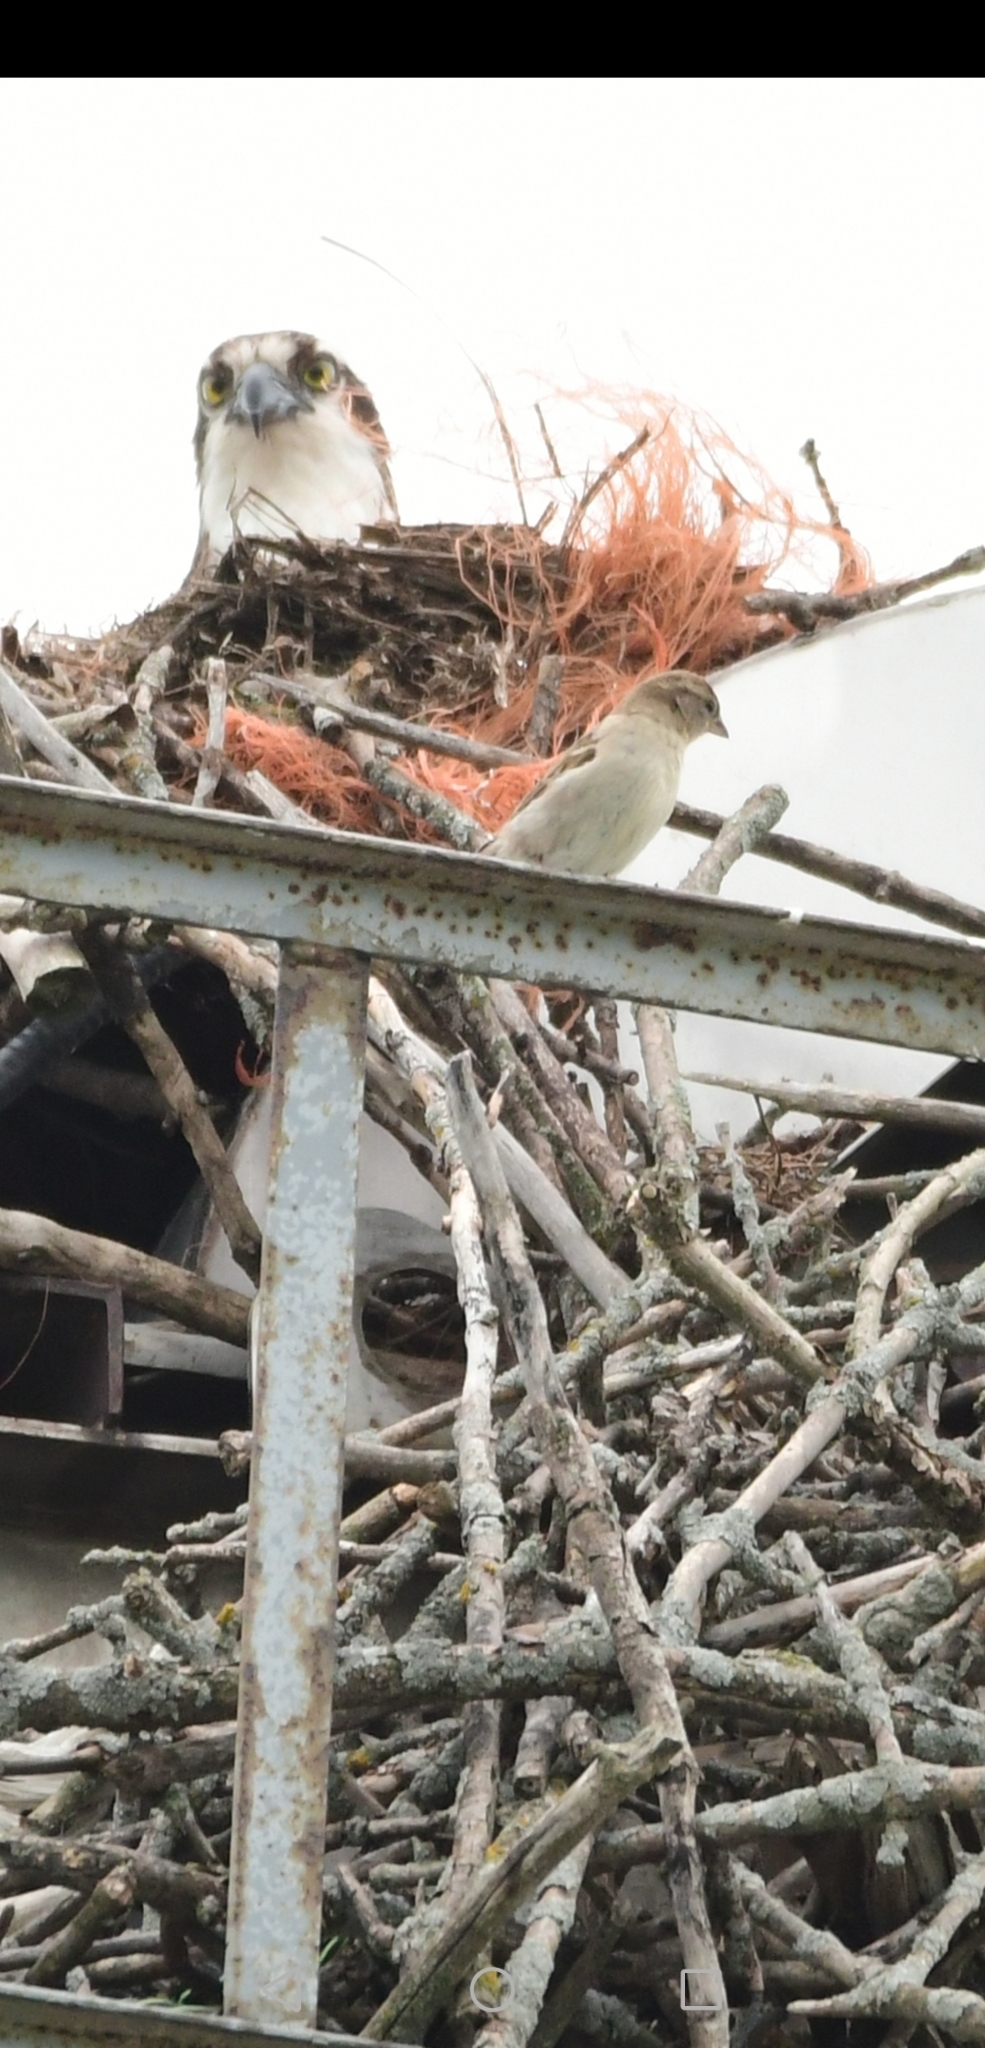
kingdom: Animalia
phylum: Chordata
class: Aves
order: Accipitriformes
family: Pandionidae
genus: Pandion
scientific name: Pandion haliaetus
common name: Osprey
